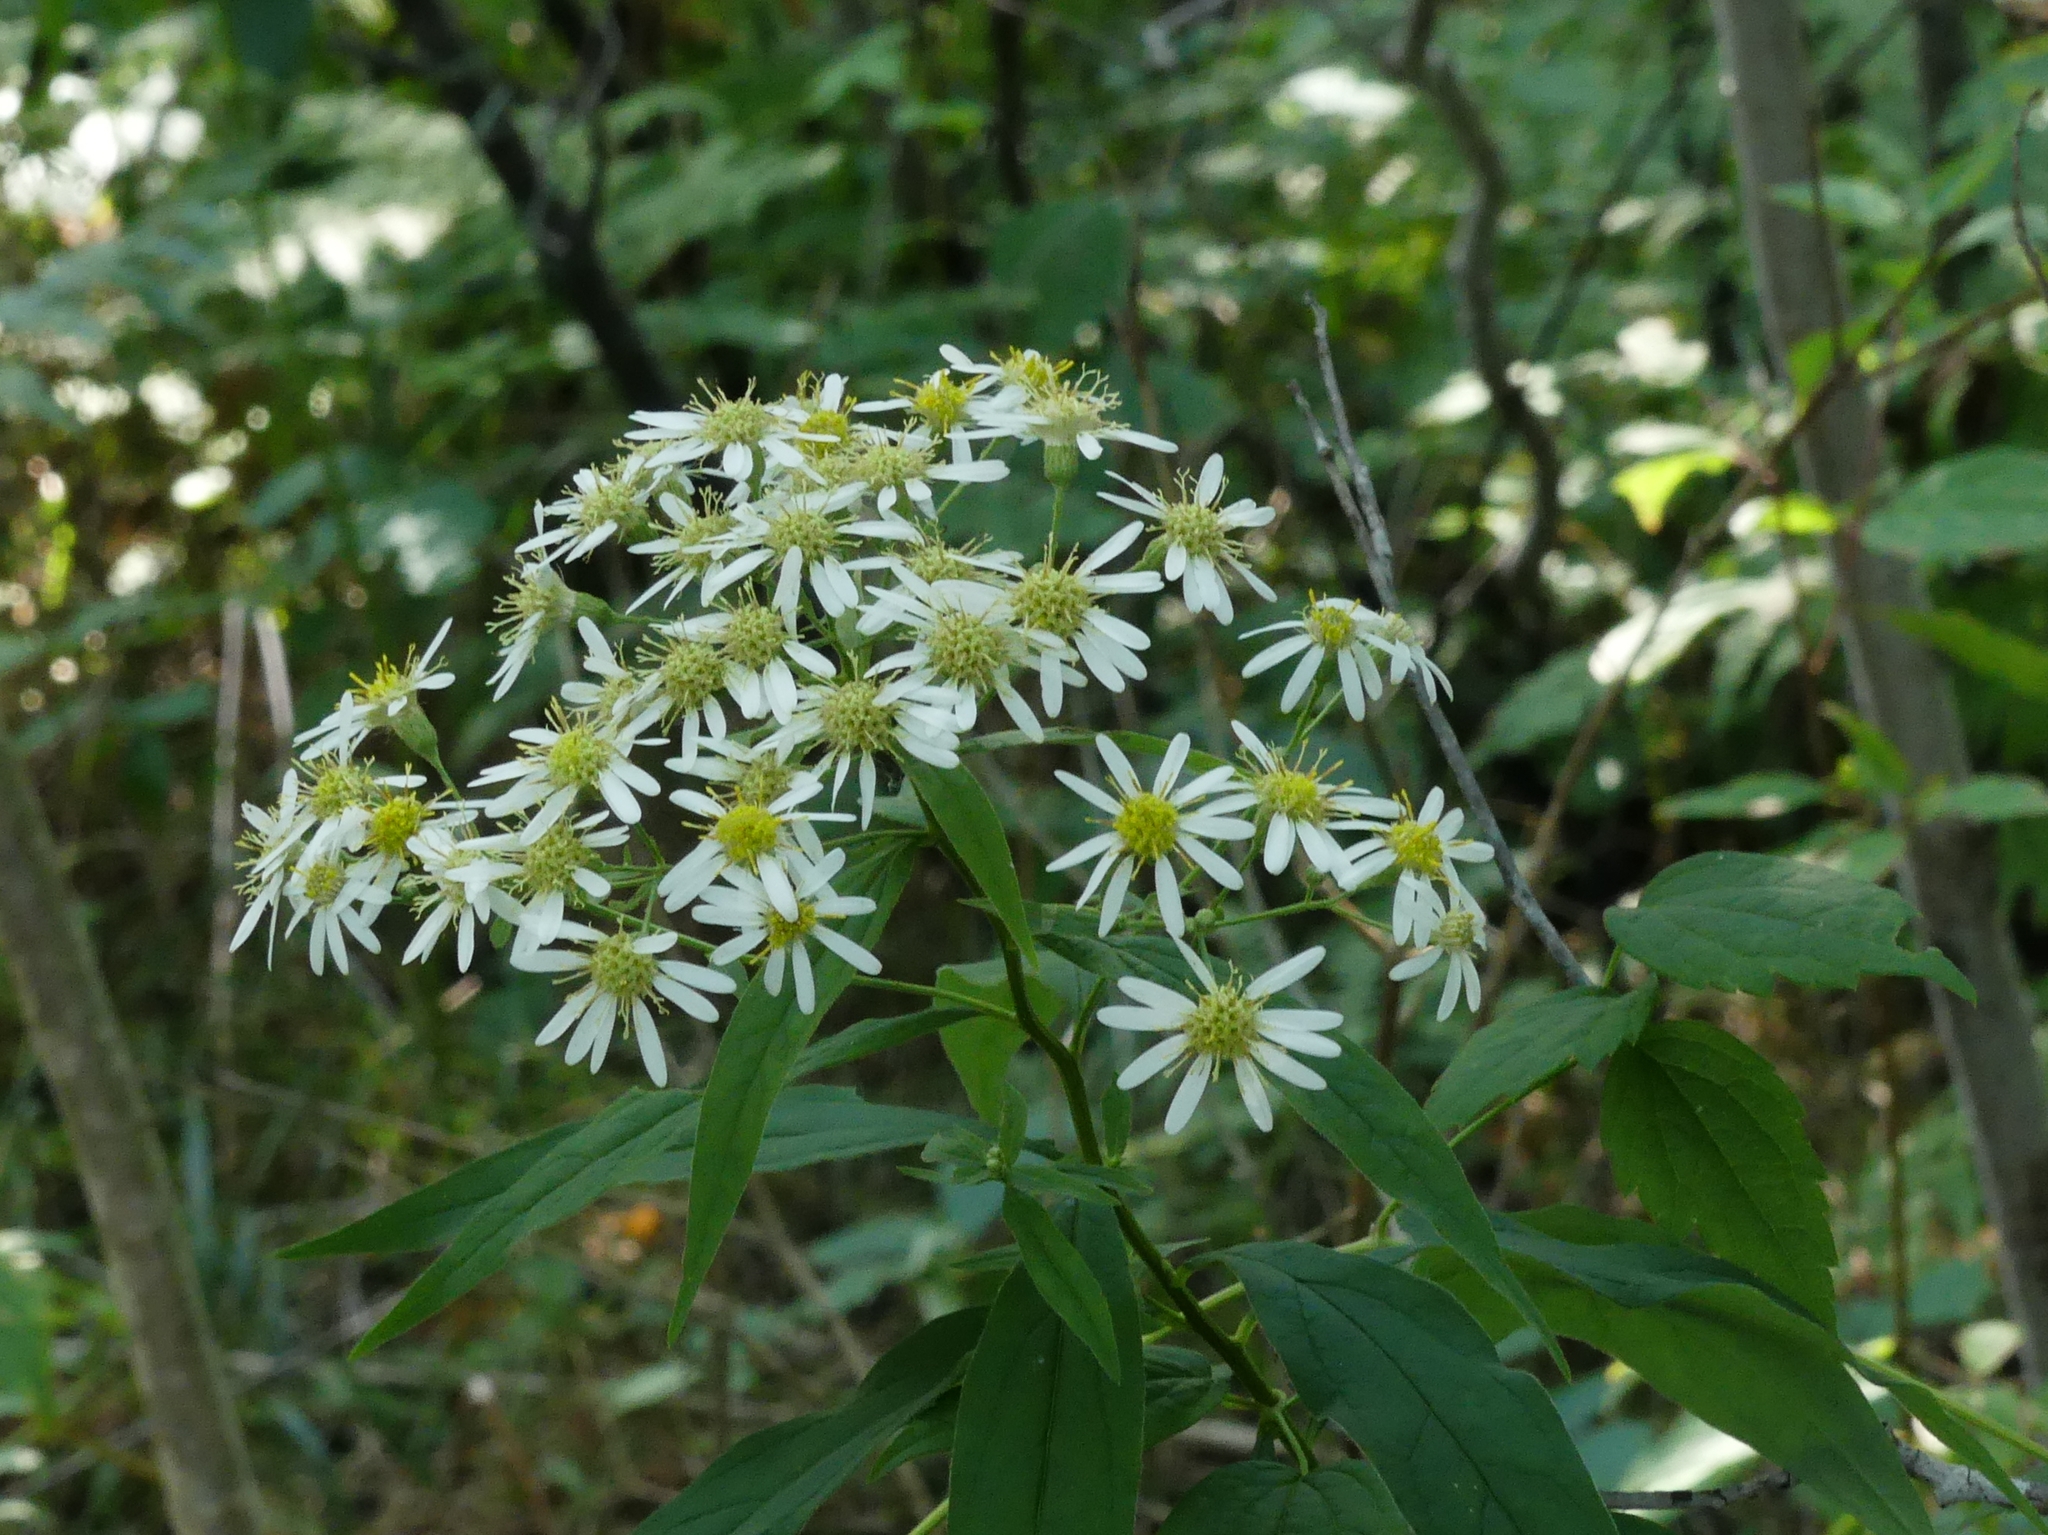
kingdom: Plantae
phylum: Tracheophyta
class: Magnoliopsida
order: Asterales
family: Asteraceae
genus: Doellingeria
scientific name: Doellingeria umbellata
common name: Flat-top white aster
